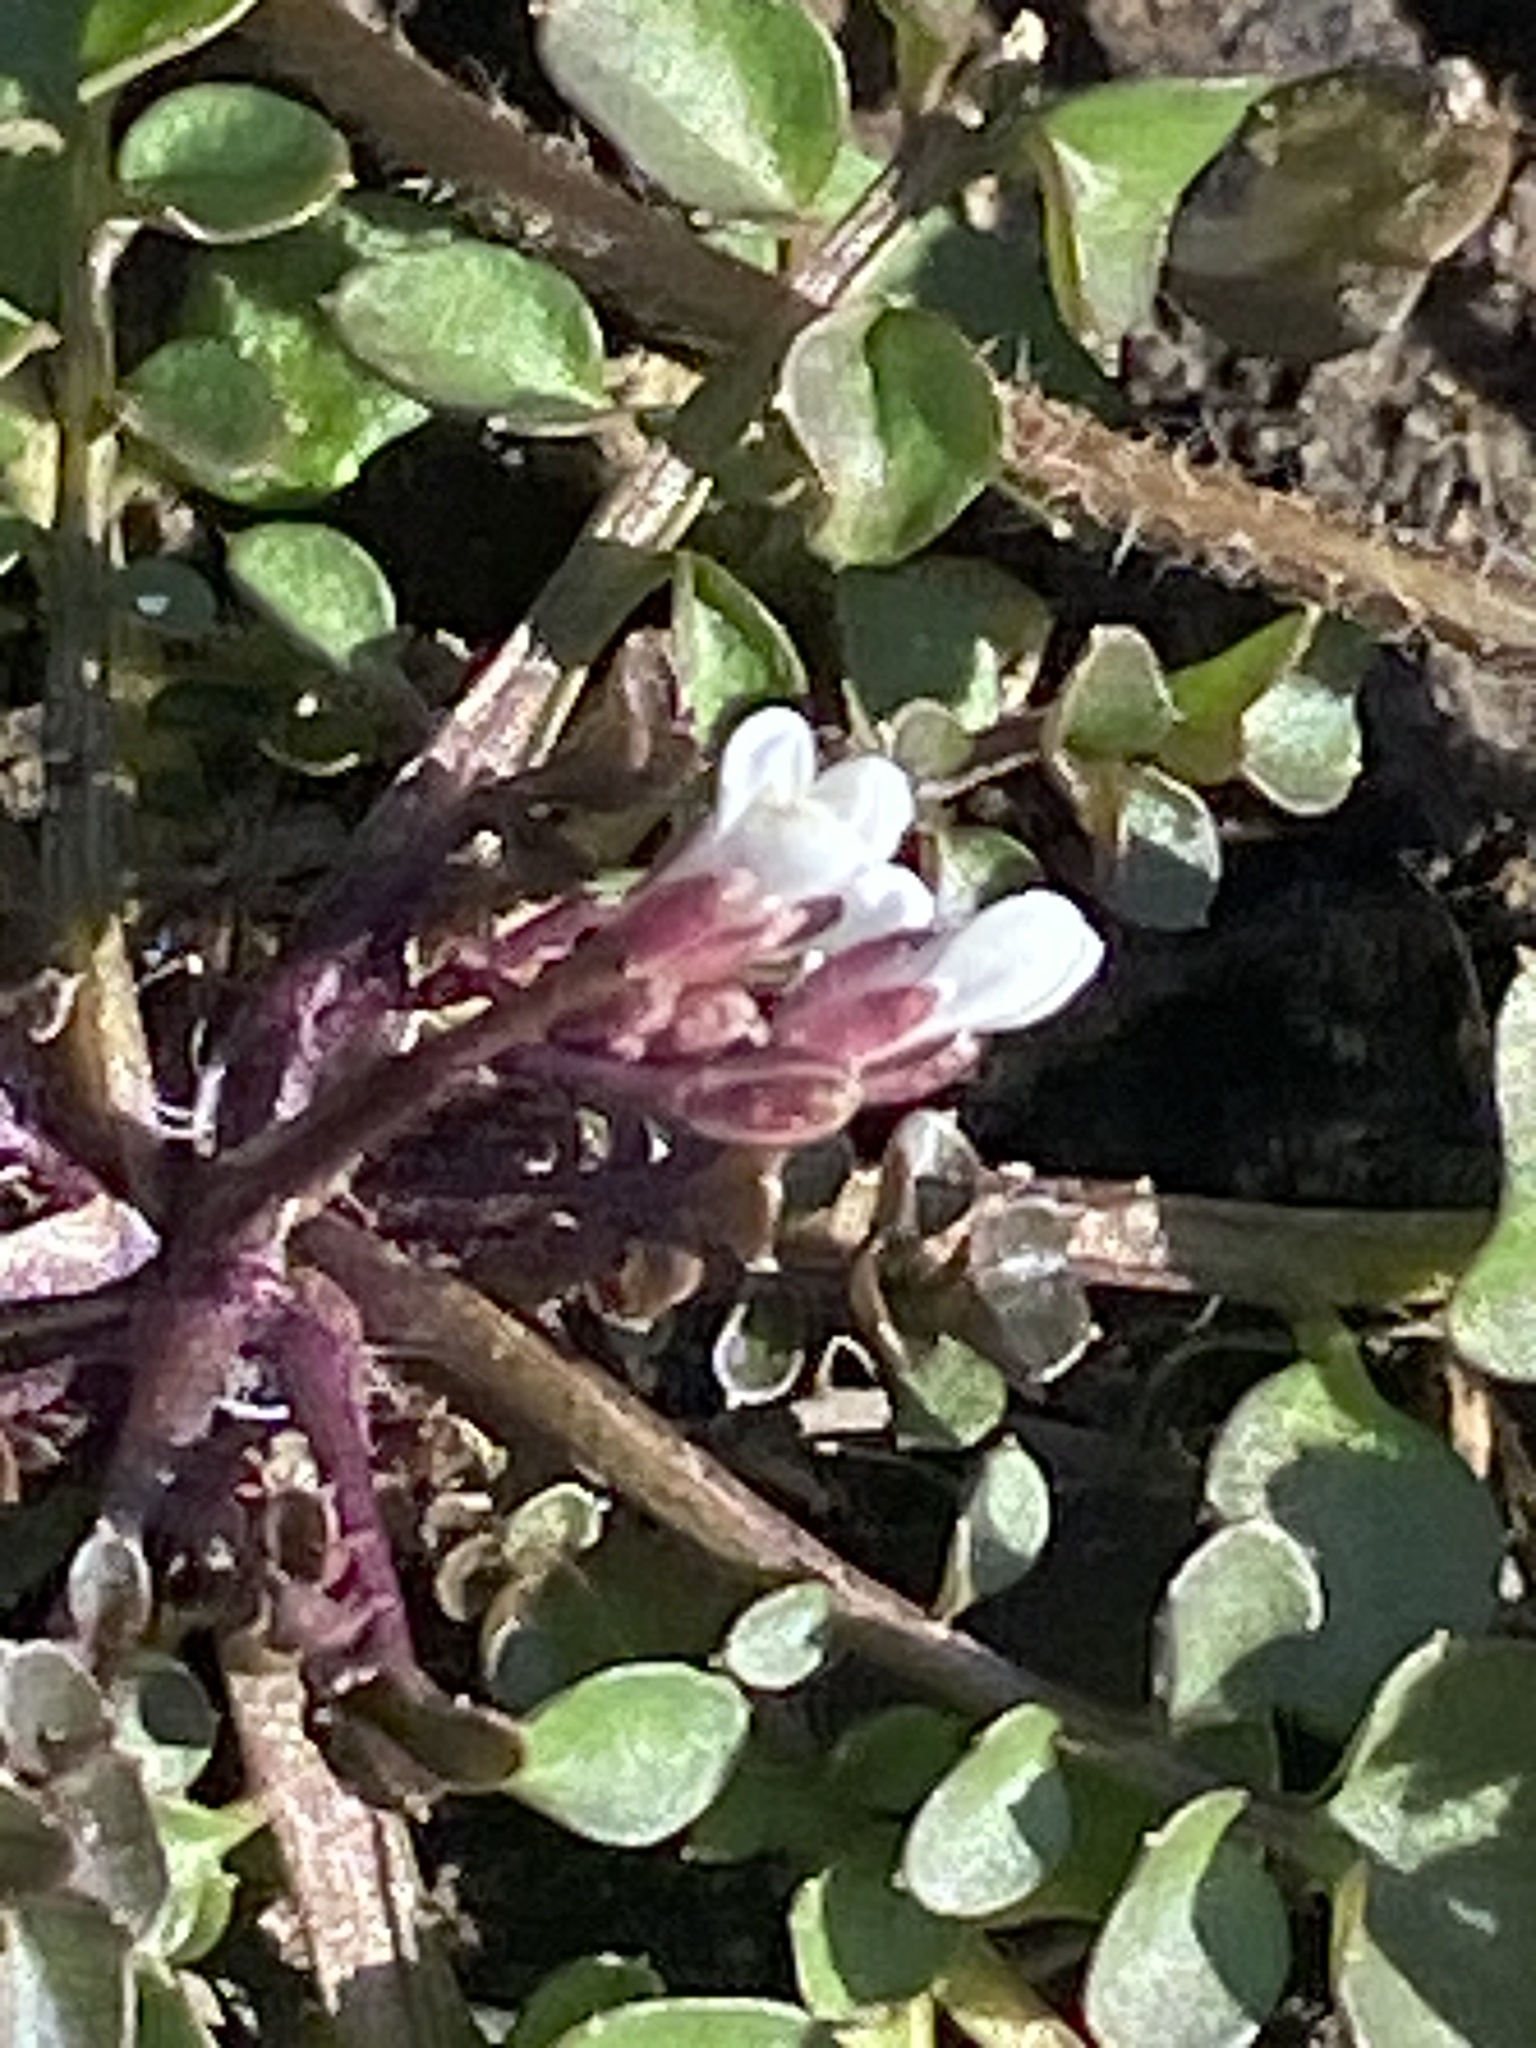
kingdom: Plantae
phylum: Tracheophyta
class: Magnoliopsida
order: Brassicales
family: Brassicaceae
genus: Cardamine
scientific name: Cardamine hirsuta
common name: Hairy bittercress
